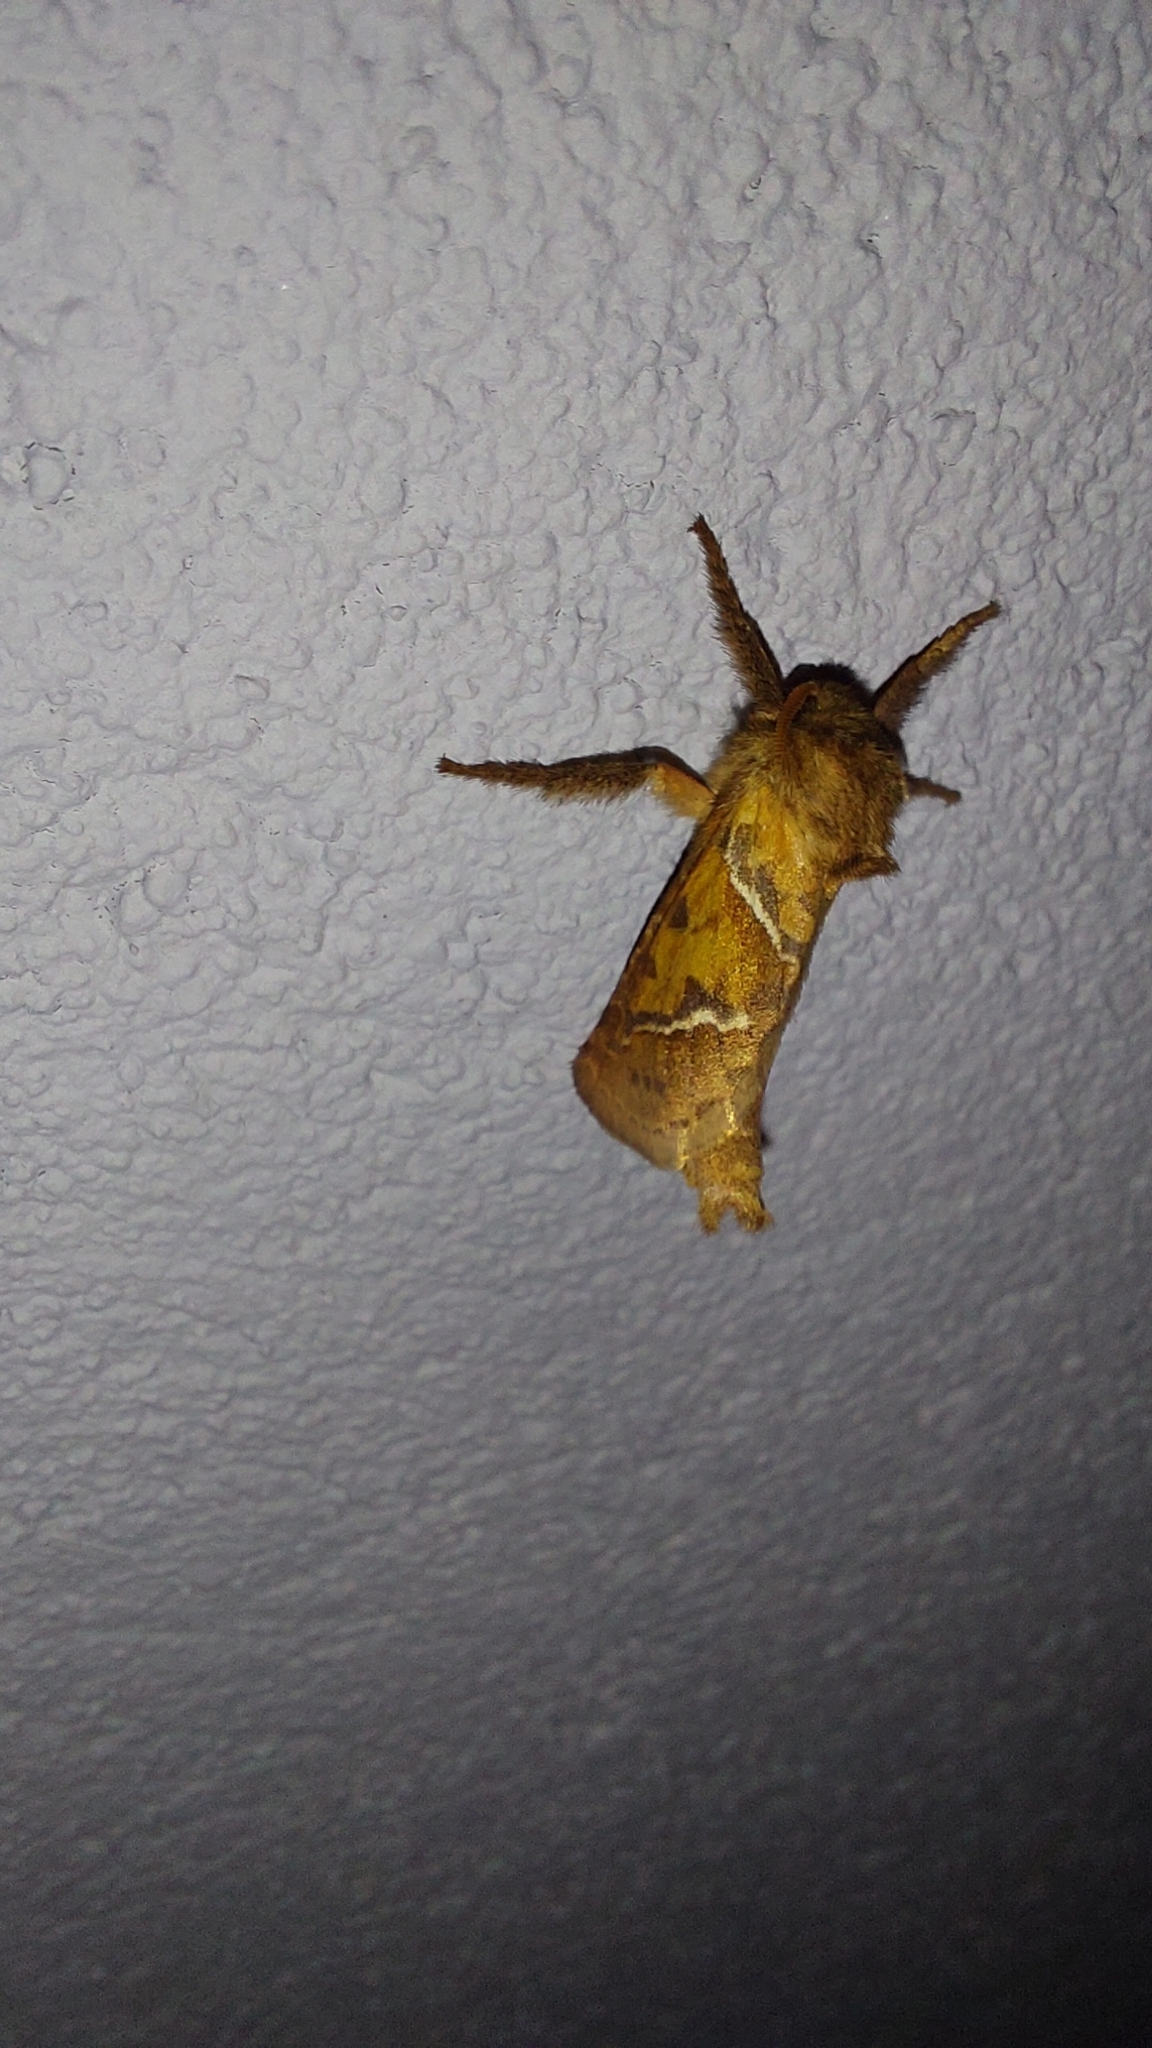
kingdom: Animalia
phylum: Arthropoda
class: Insecta
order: Lepidoptera
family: Hepialidae
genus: Triodia
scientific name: Triodia sylvina
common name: Orange swift
